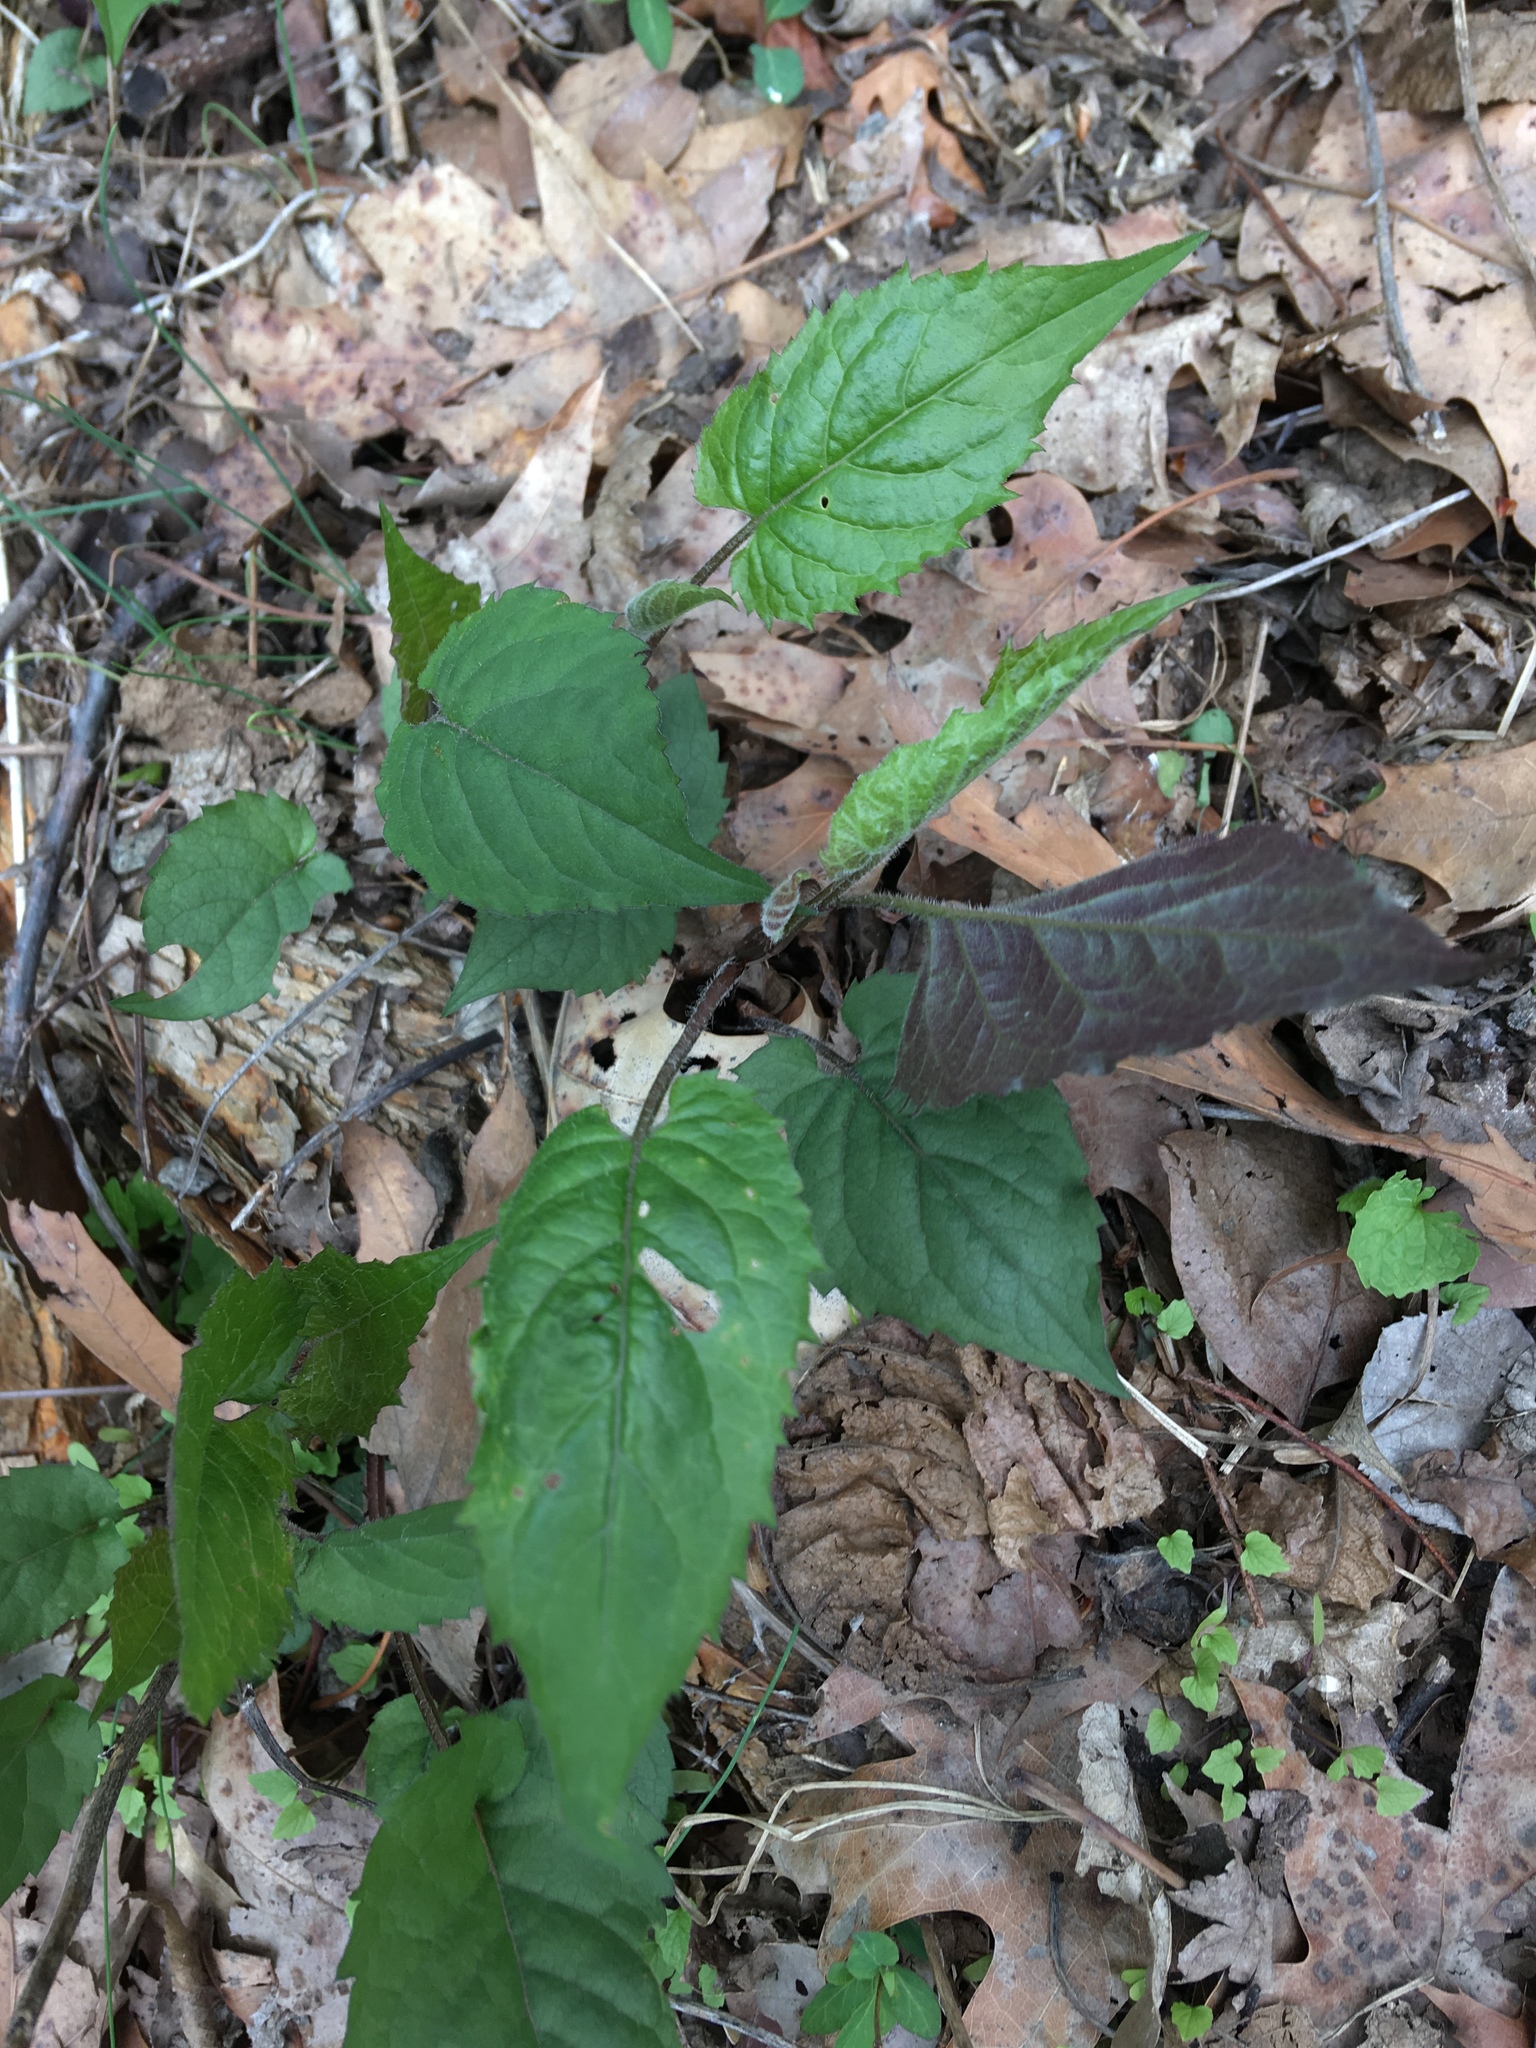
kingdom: Plantae
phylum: Tracheophyta
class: Magnoliopsida
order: Asterales
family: Asteraceae
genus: Eurybia
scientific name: Eurybia divaricata
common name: White wood aster
